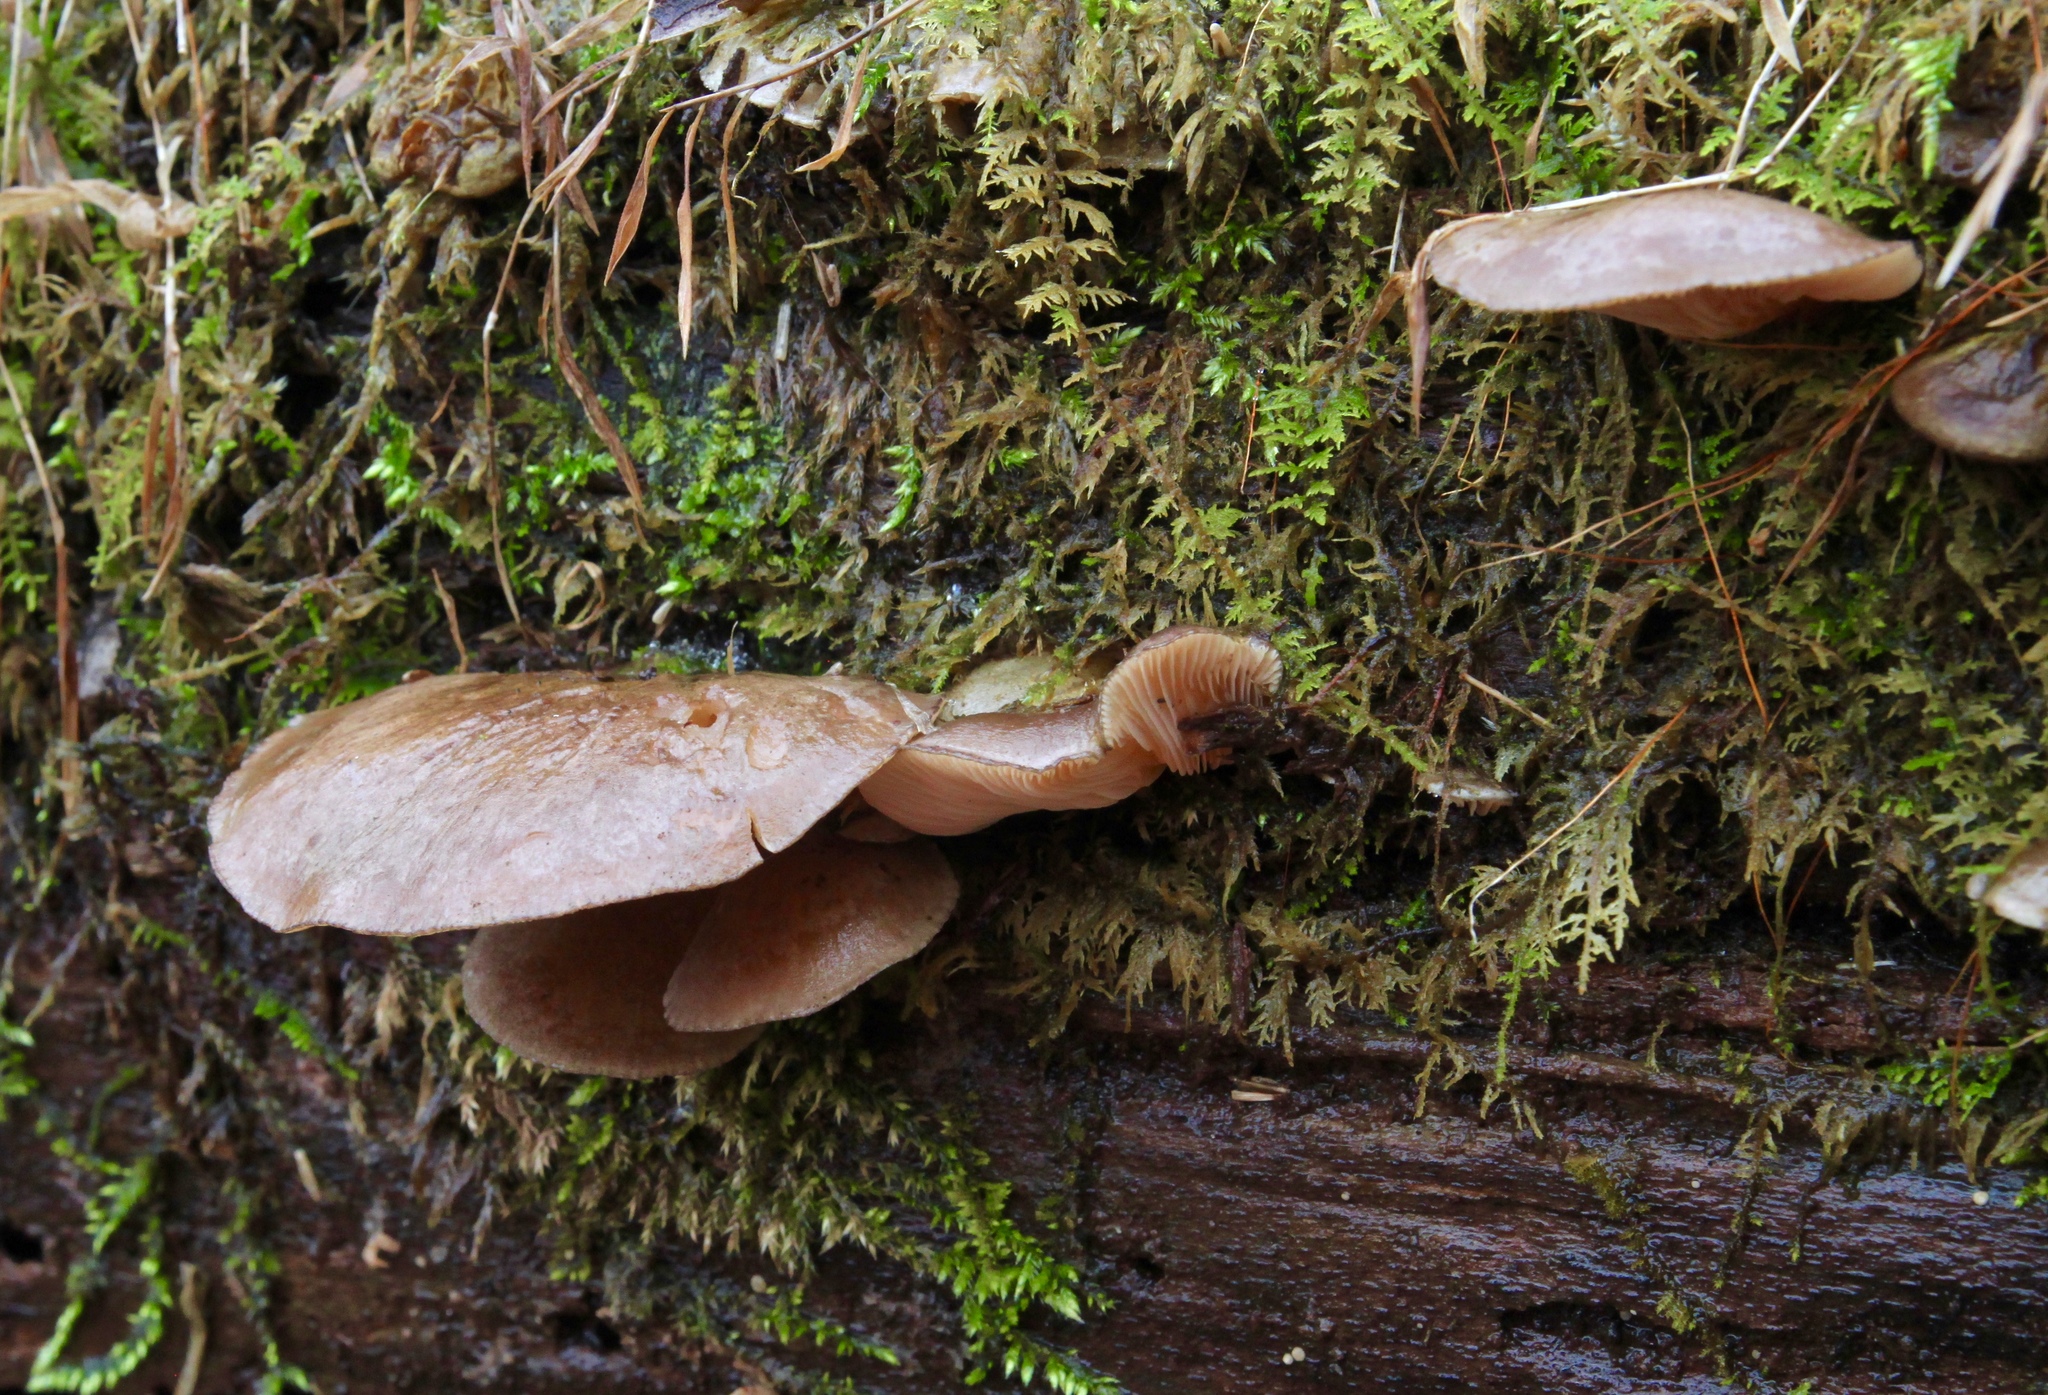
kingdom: Fungi
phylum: Basidiomycota
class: Agaricomycetes
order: Agaricales
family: Sarcomyxaceae
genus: Sarcomyxa
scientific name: Sarcomyxa serotina
